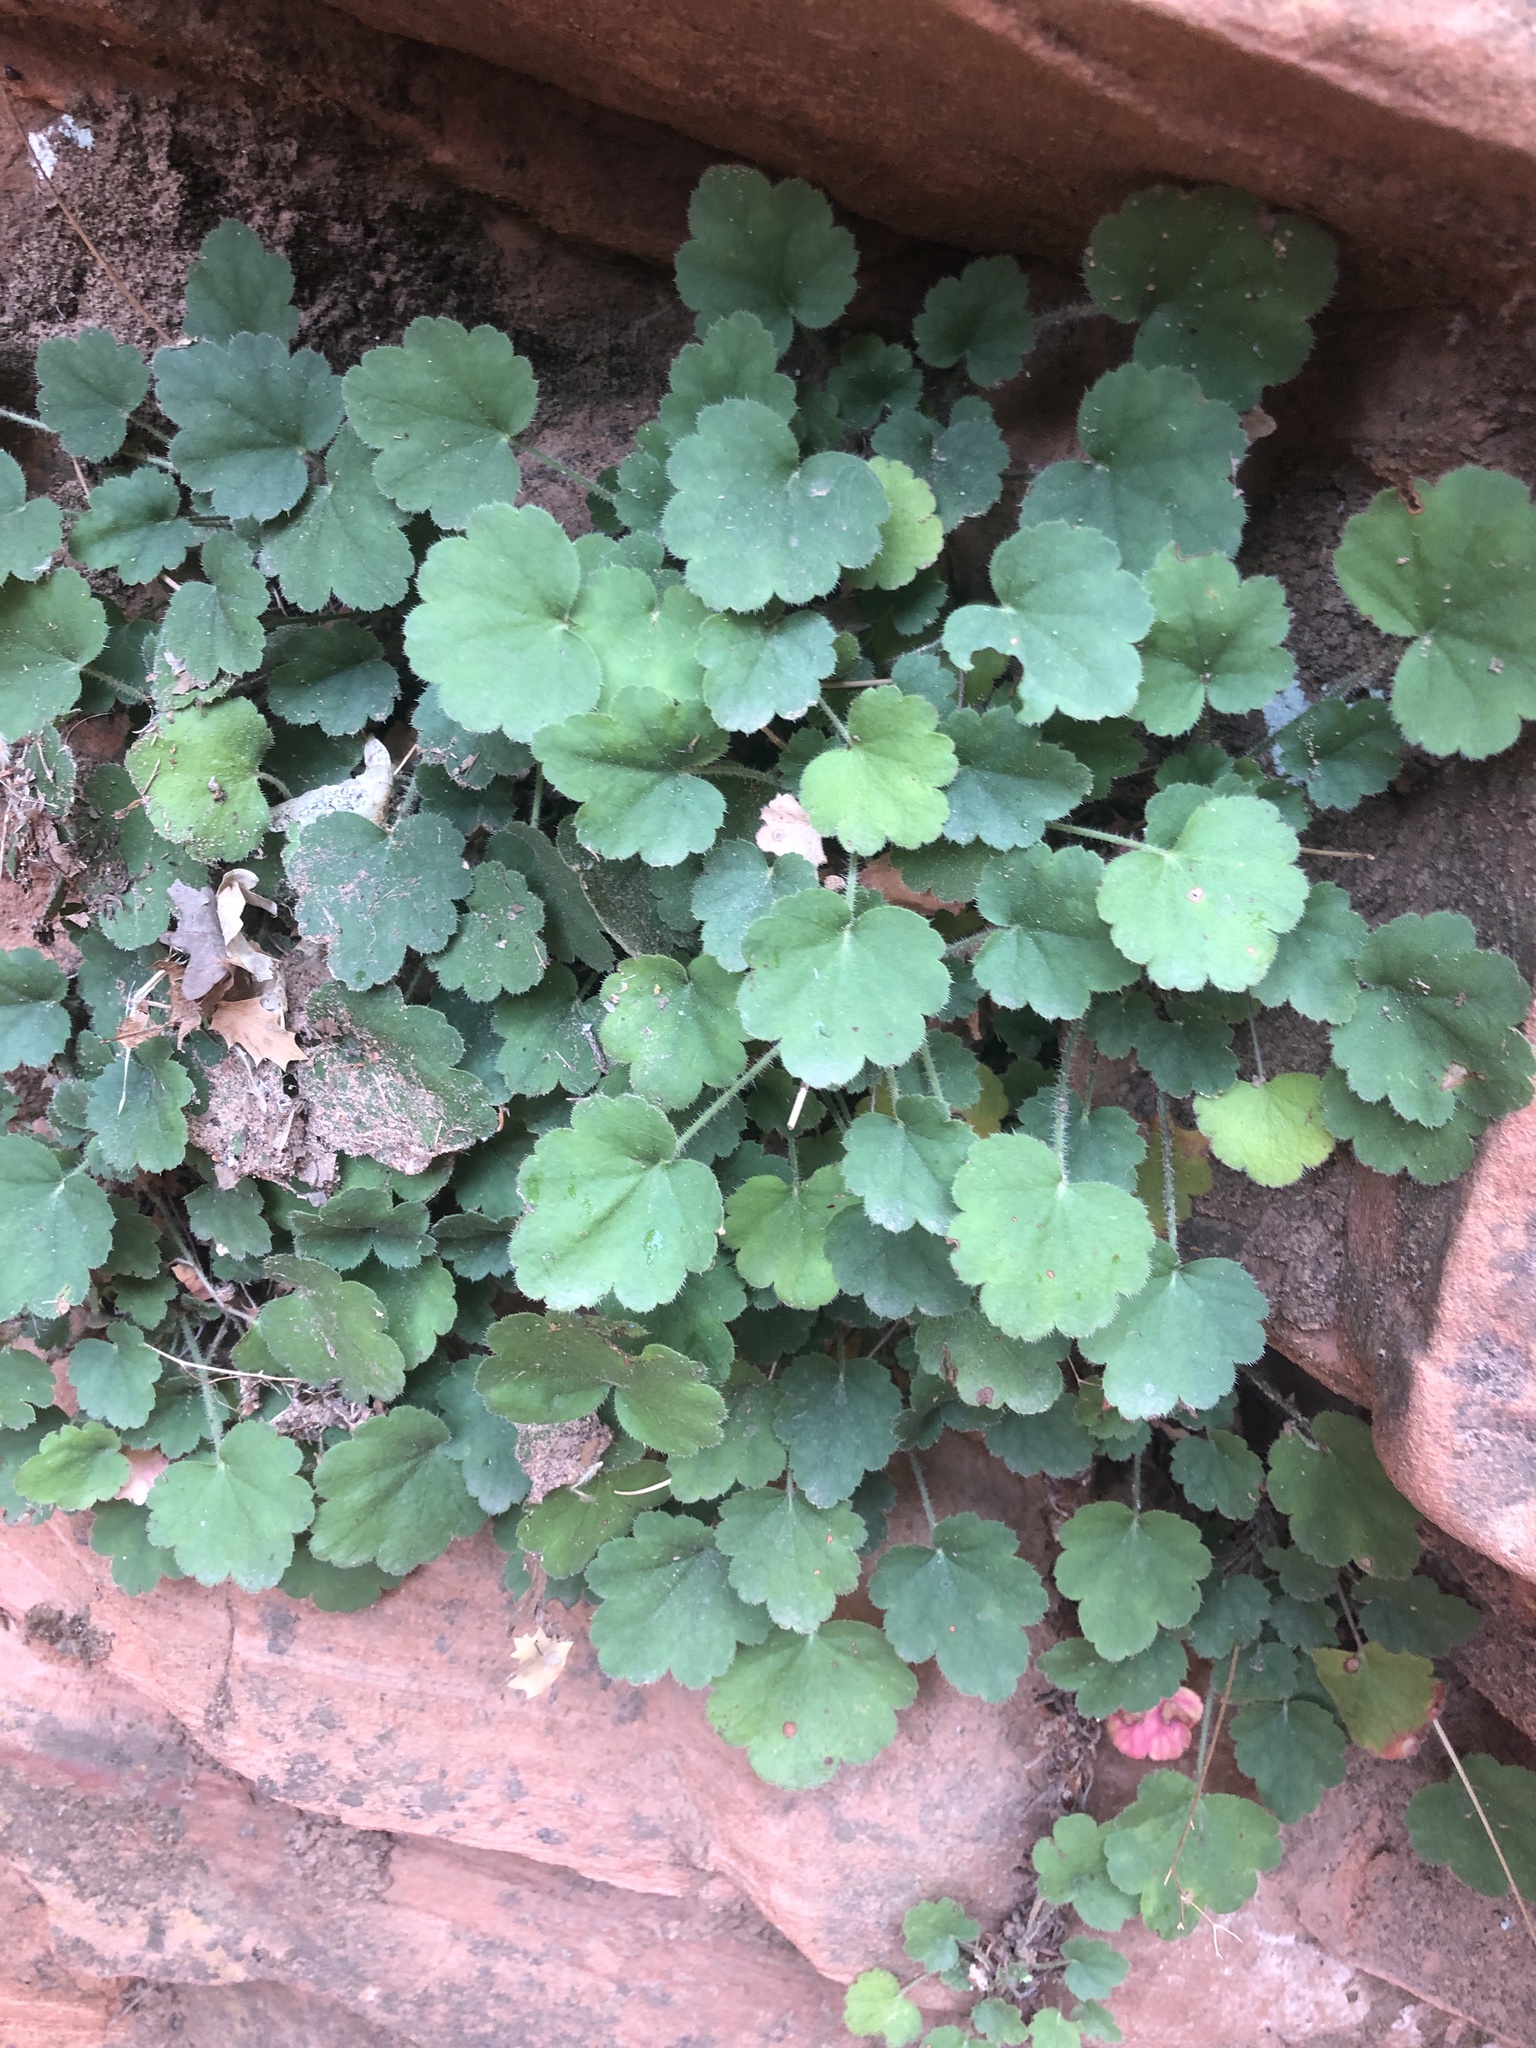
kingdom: Plantae
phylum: Tracheophyta
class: Magnoliopsida
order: Saxifragales
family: Saxifragaceae
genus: Heuchera
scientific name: Heuchera rubescens
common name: Jack-o'the-rocks
